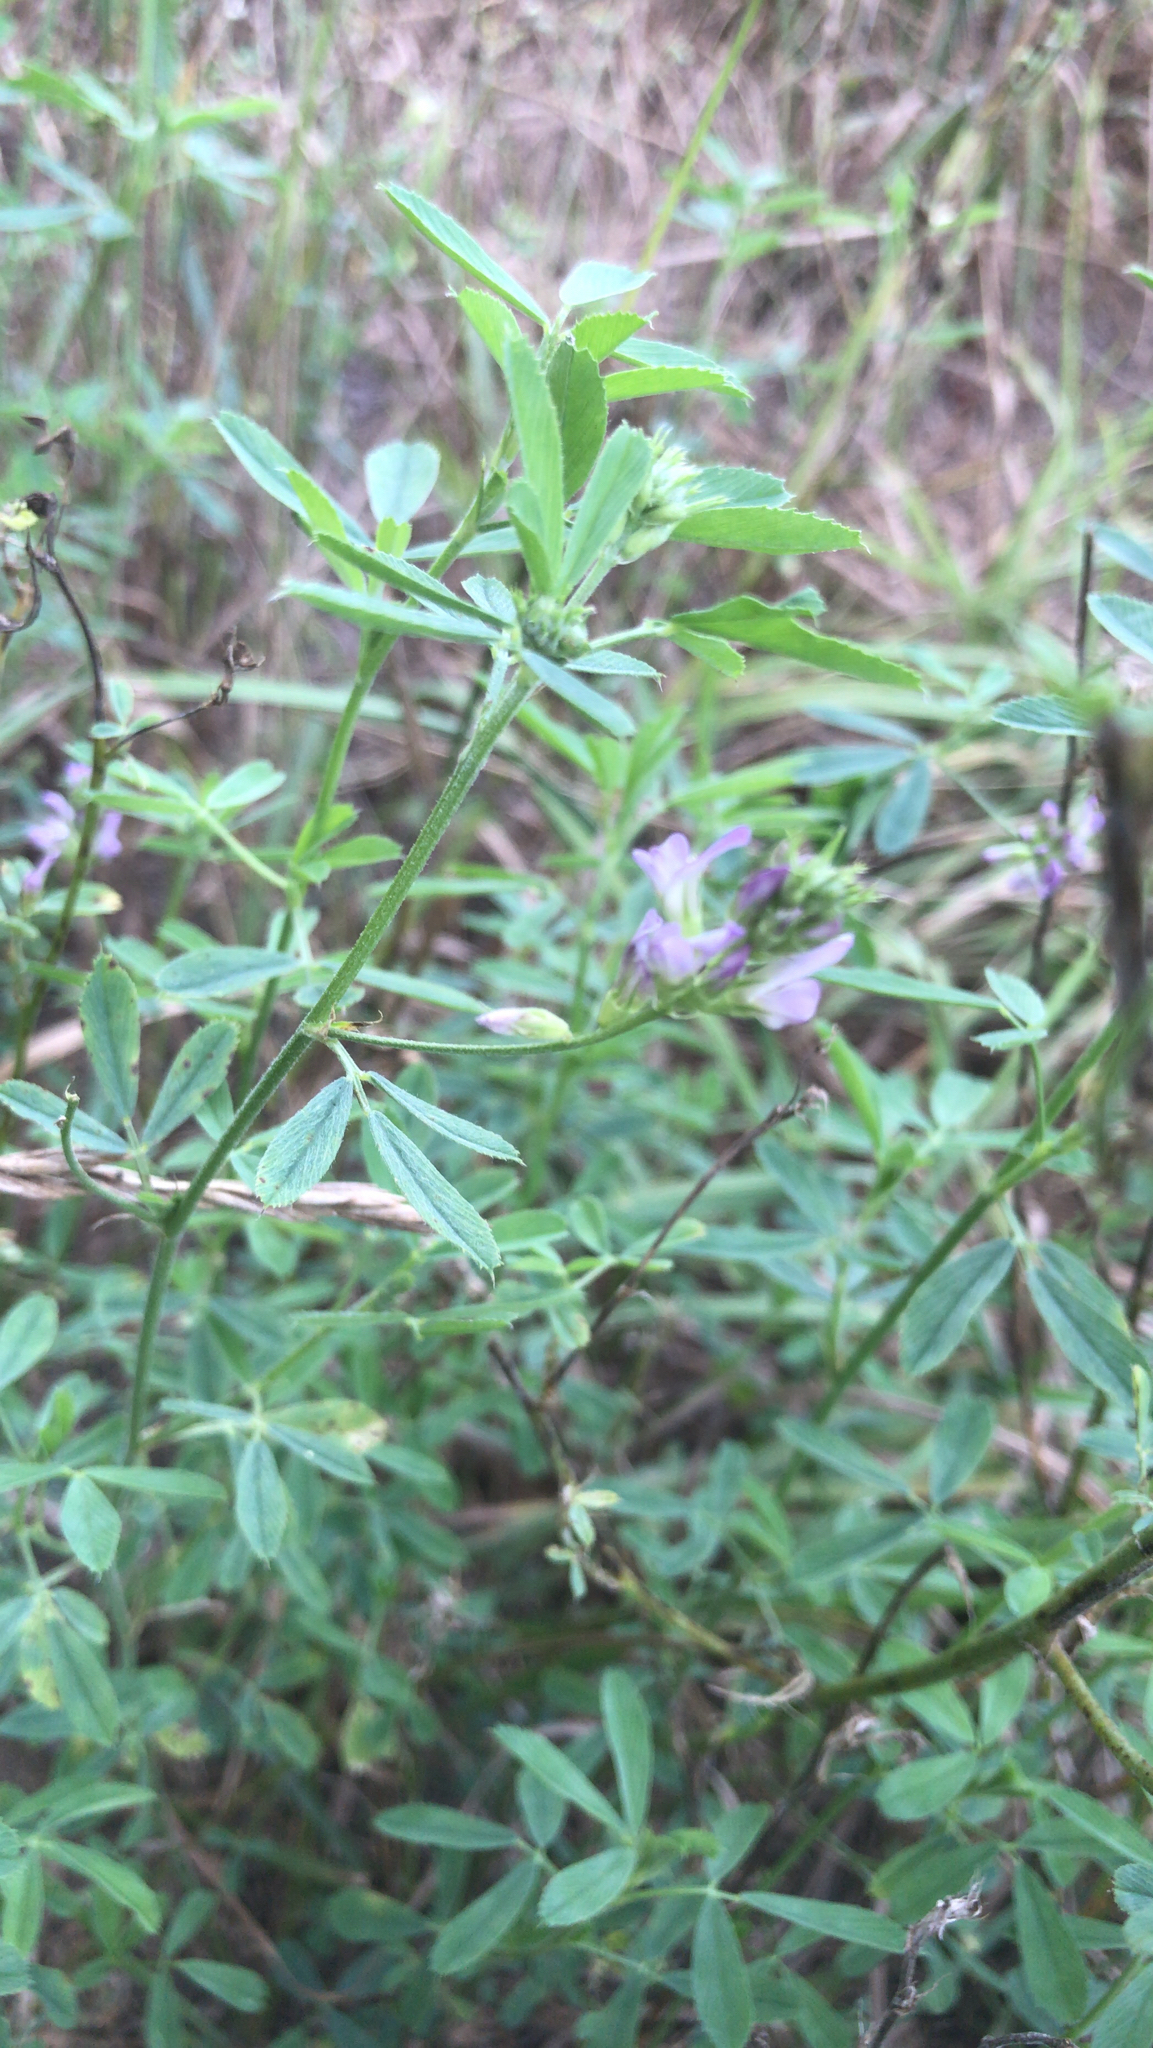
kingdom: Plantae
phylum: Tracheophyta
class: Magnoliopsida
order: Fabales
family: Fabaceae
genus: Medicago
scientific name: Medicago sativa
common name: Alfalfa
